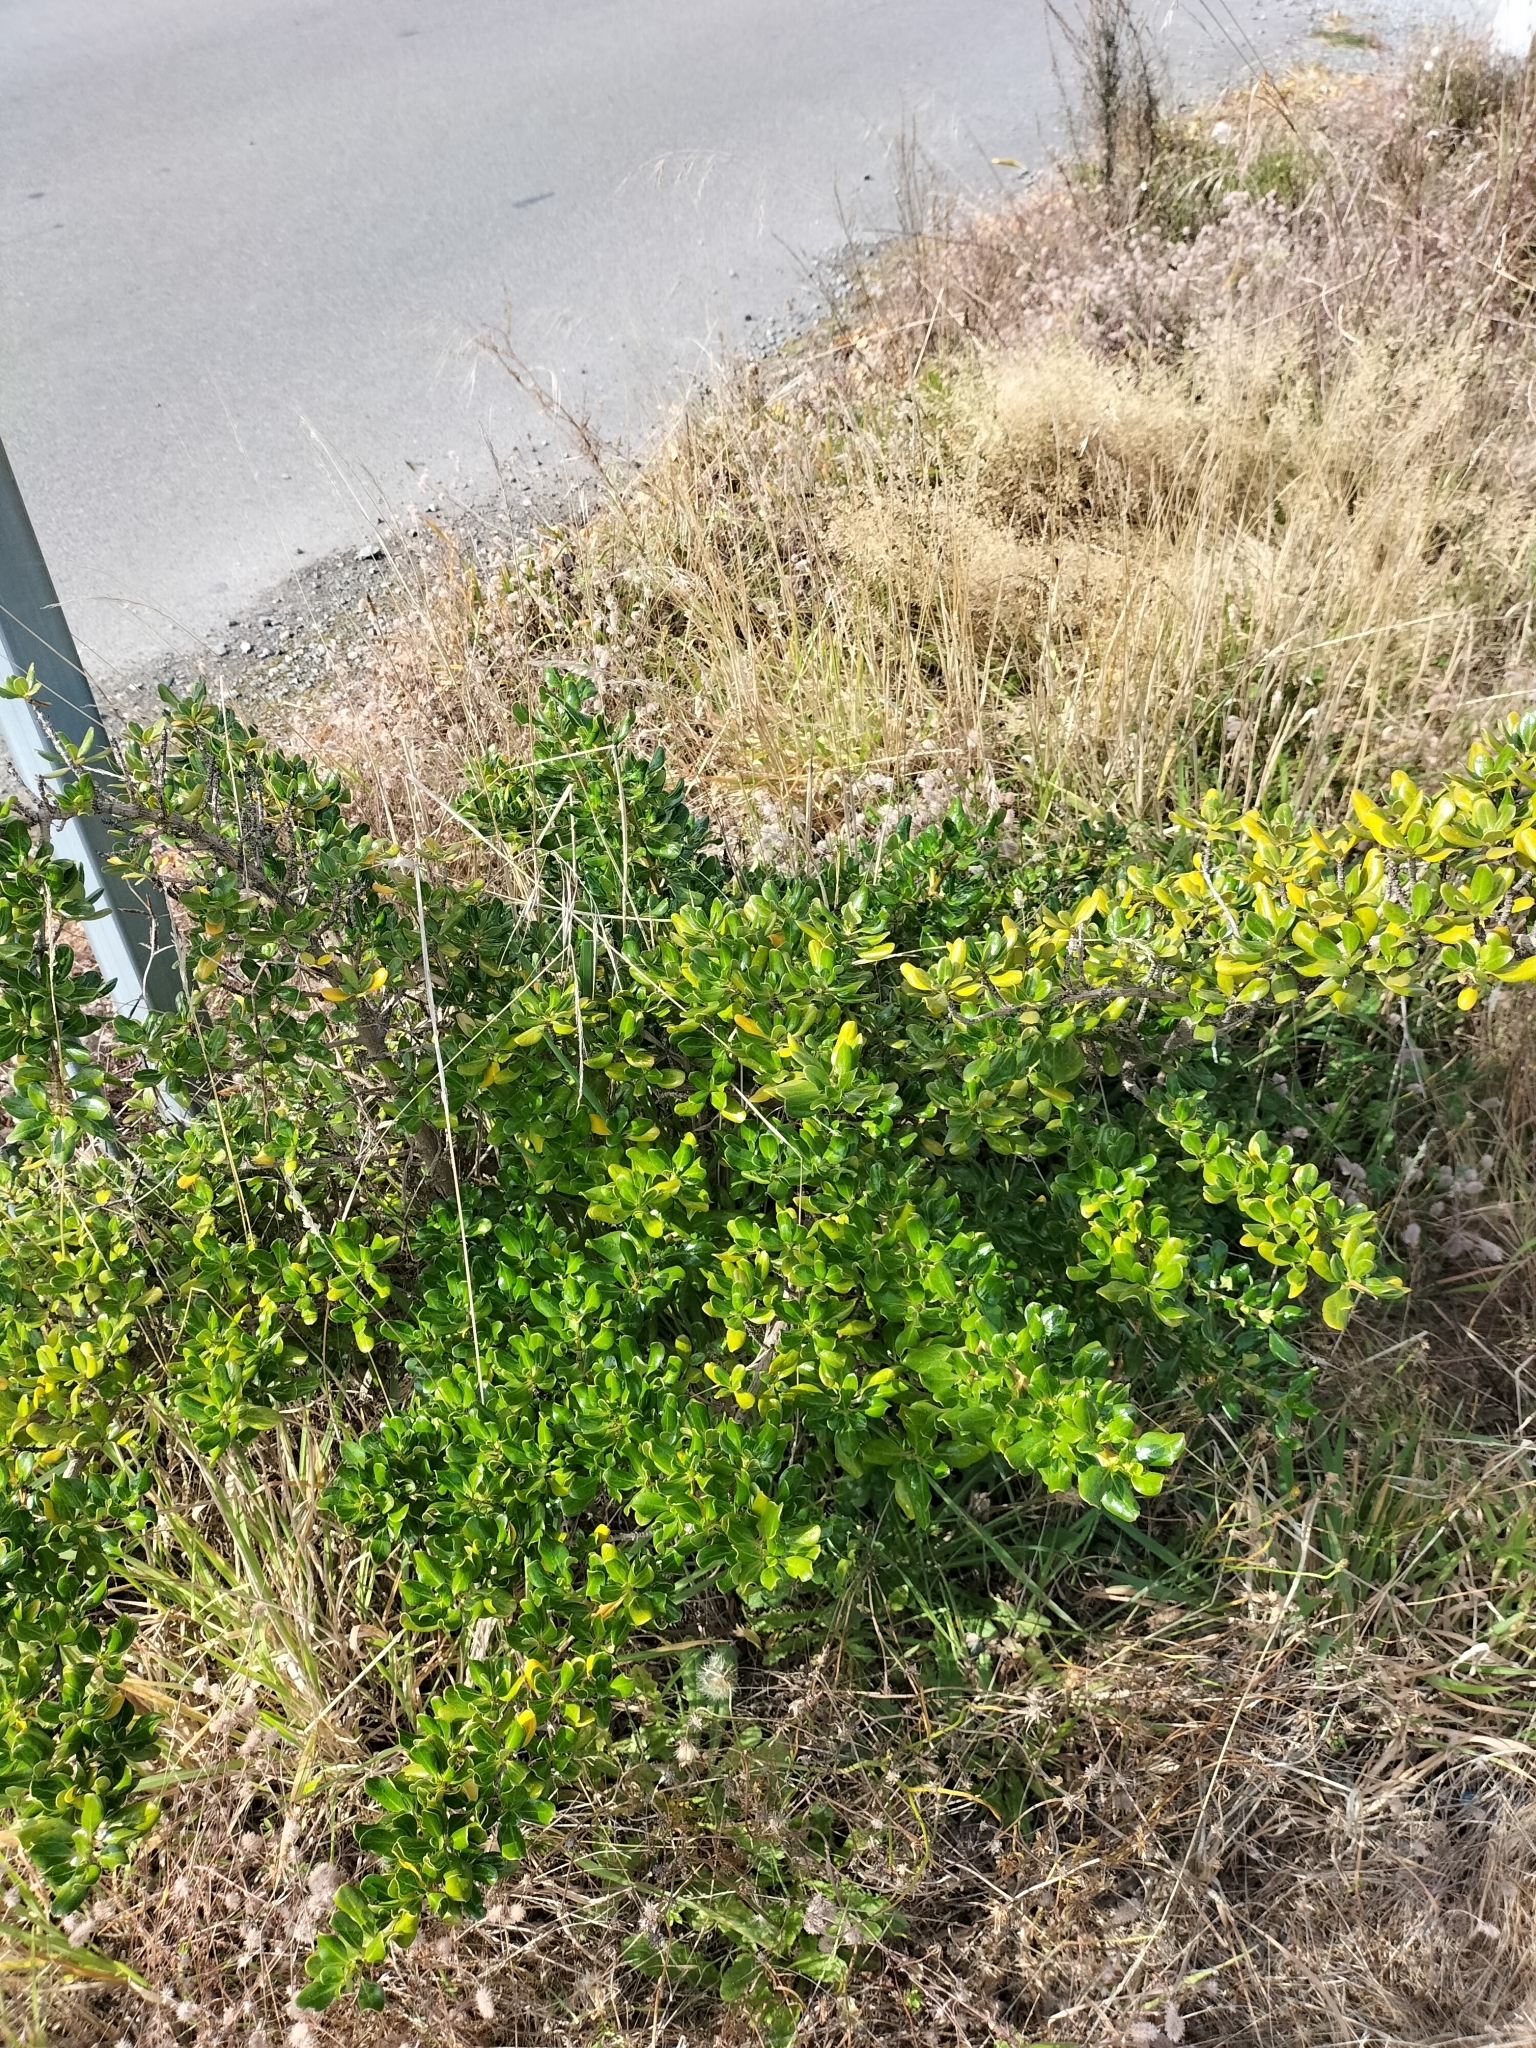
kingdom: Plantae
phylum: Tracheophyta
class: Magnoliopsida
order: Gentianales
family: Rubiaceae
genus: Coprosma
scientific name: Coprosma repens
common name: Tree bedstraw
